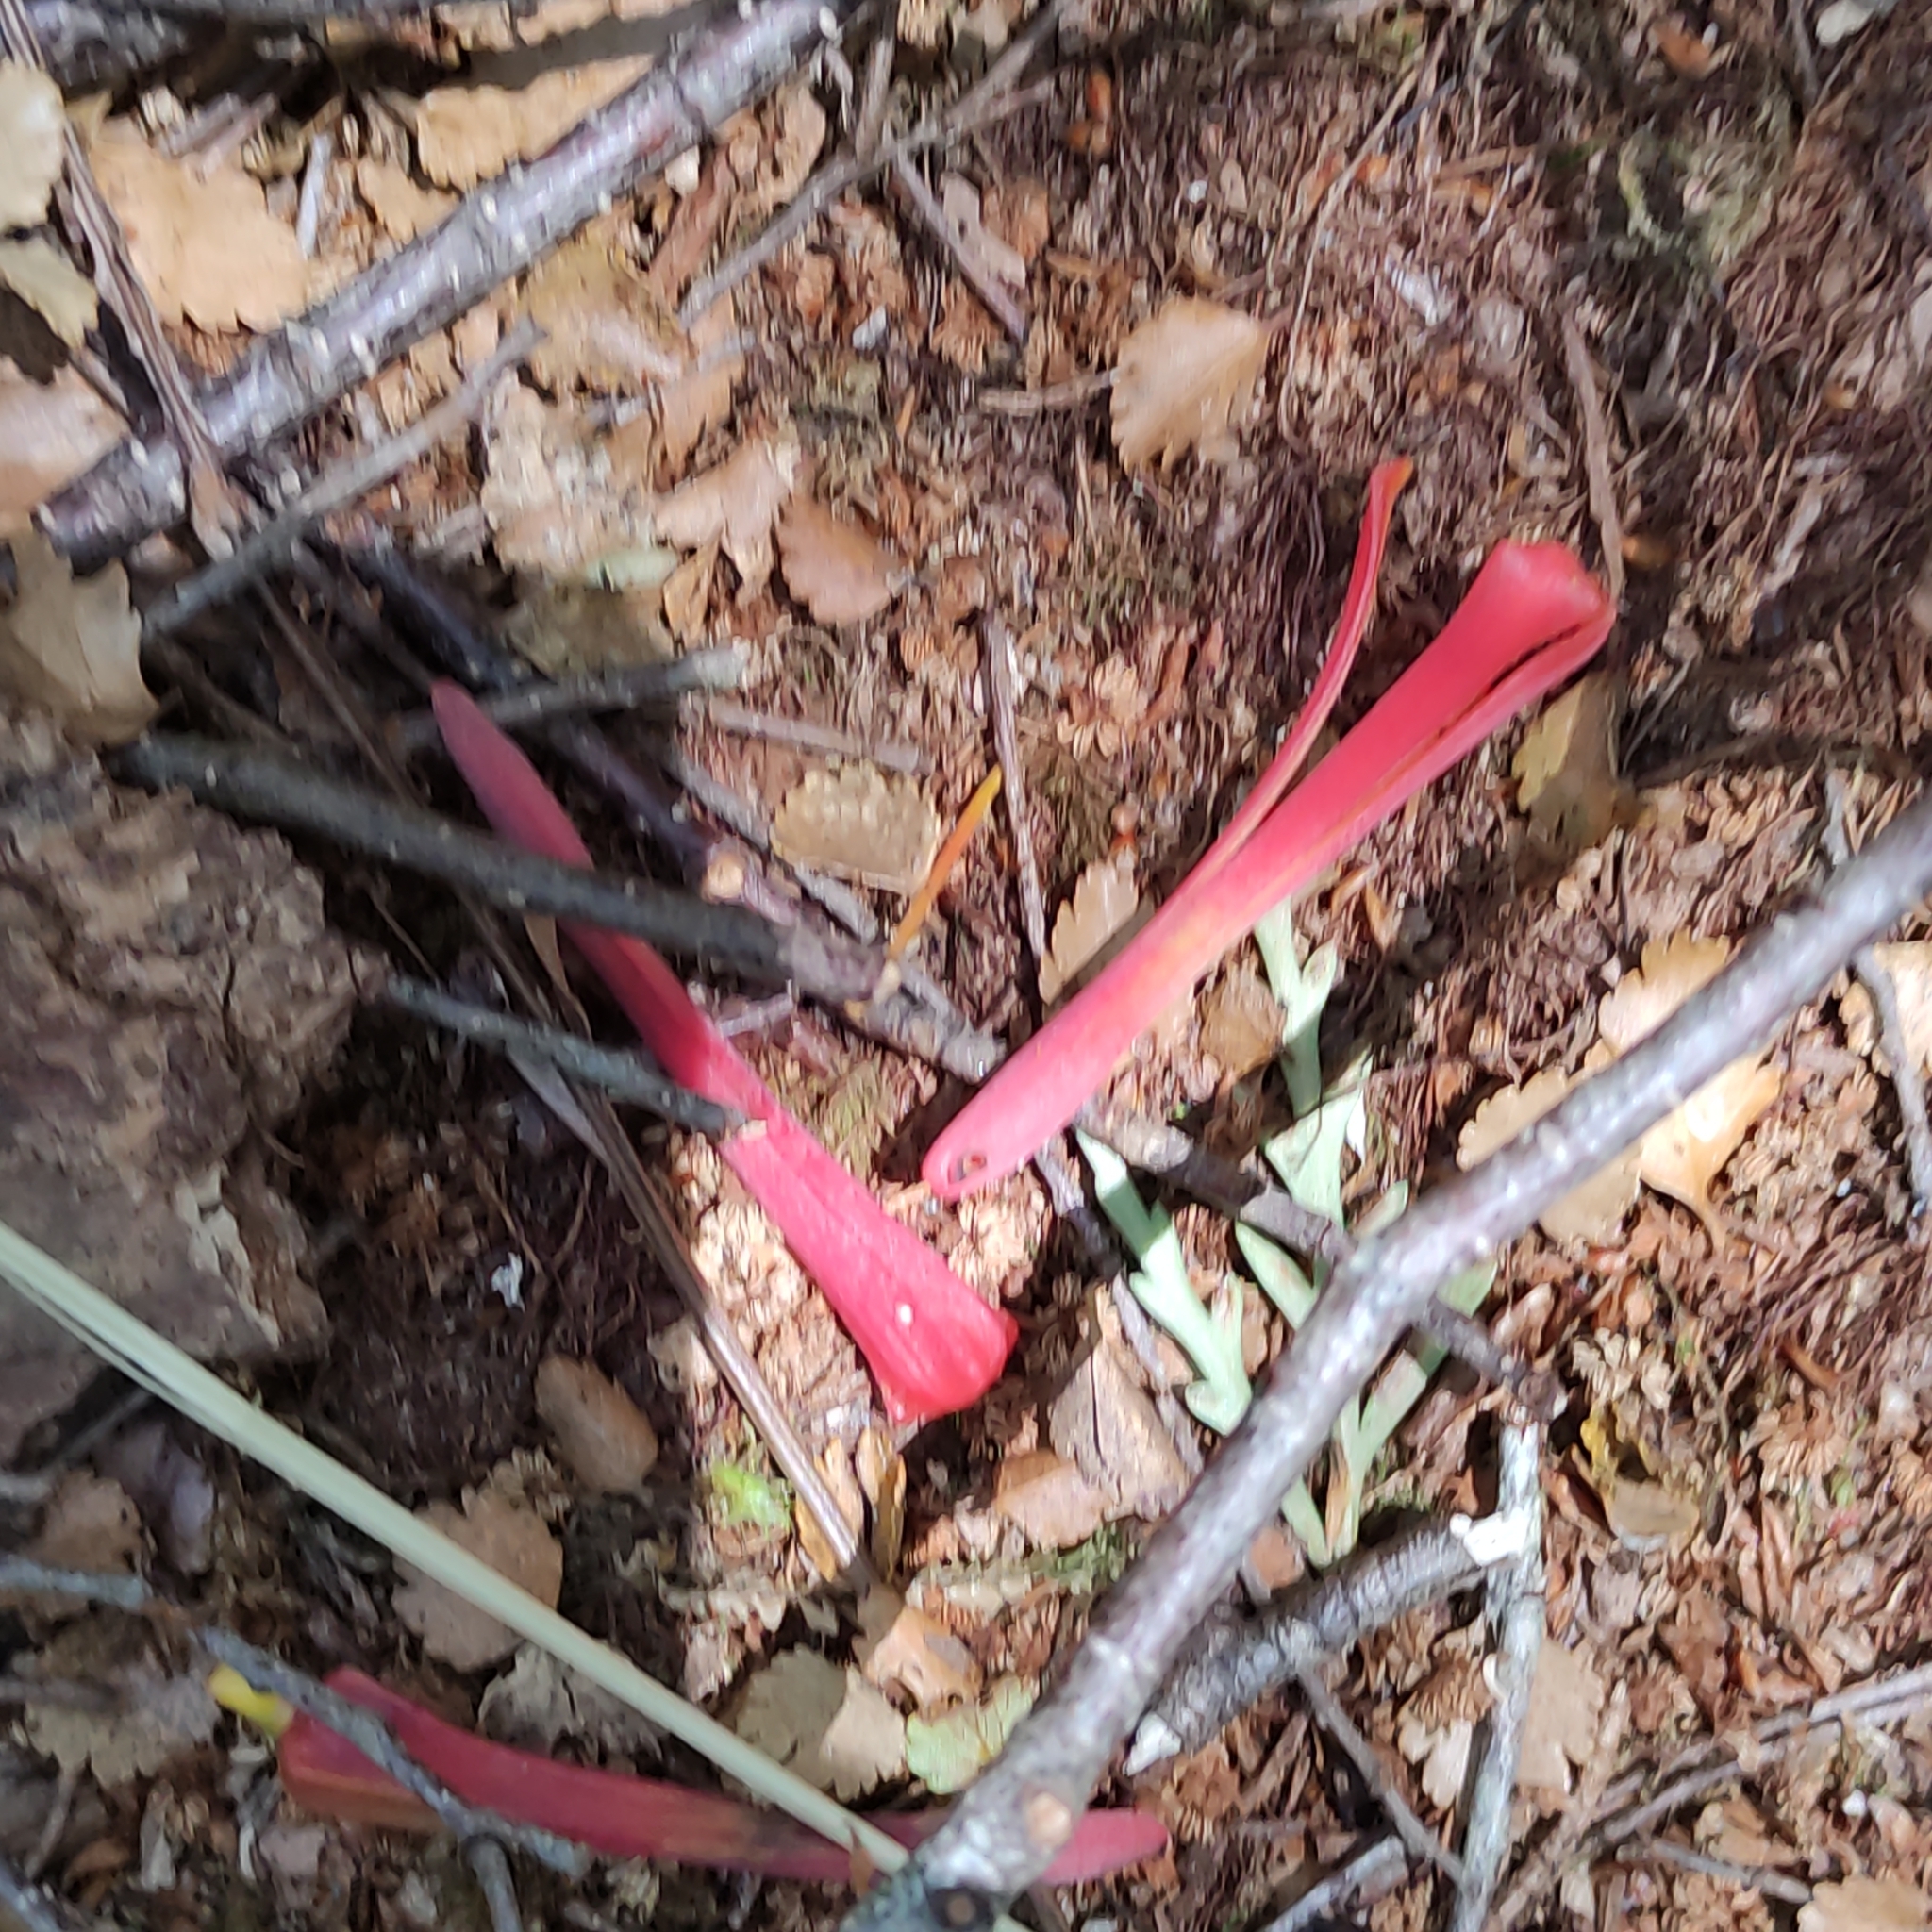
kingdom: Plantae
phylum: Tracheophyta
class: Magnoliopsida
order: Santalales
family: Loranthaceae
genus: Peraxilla
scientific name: Peraxilla tetrapetala
